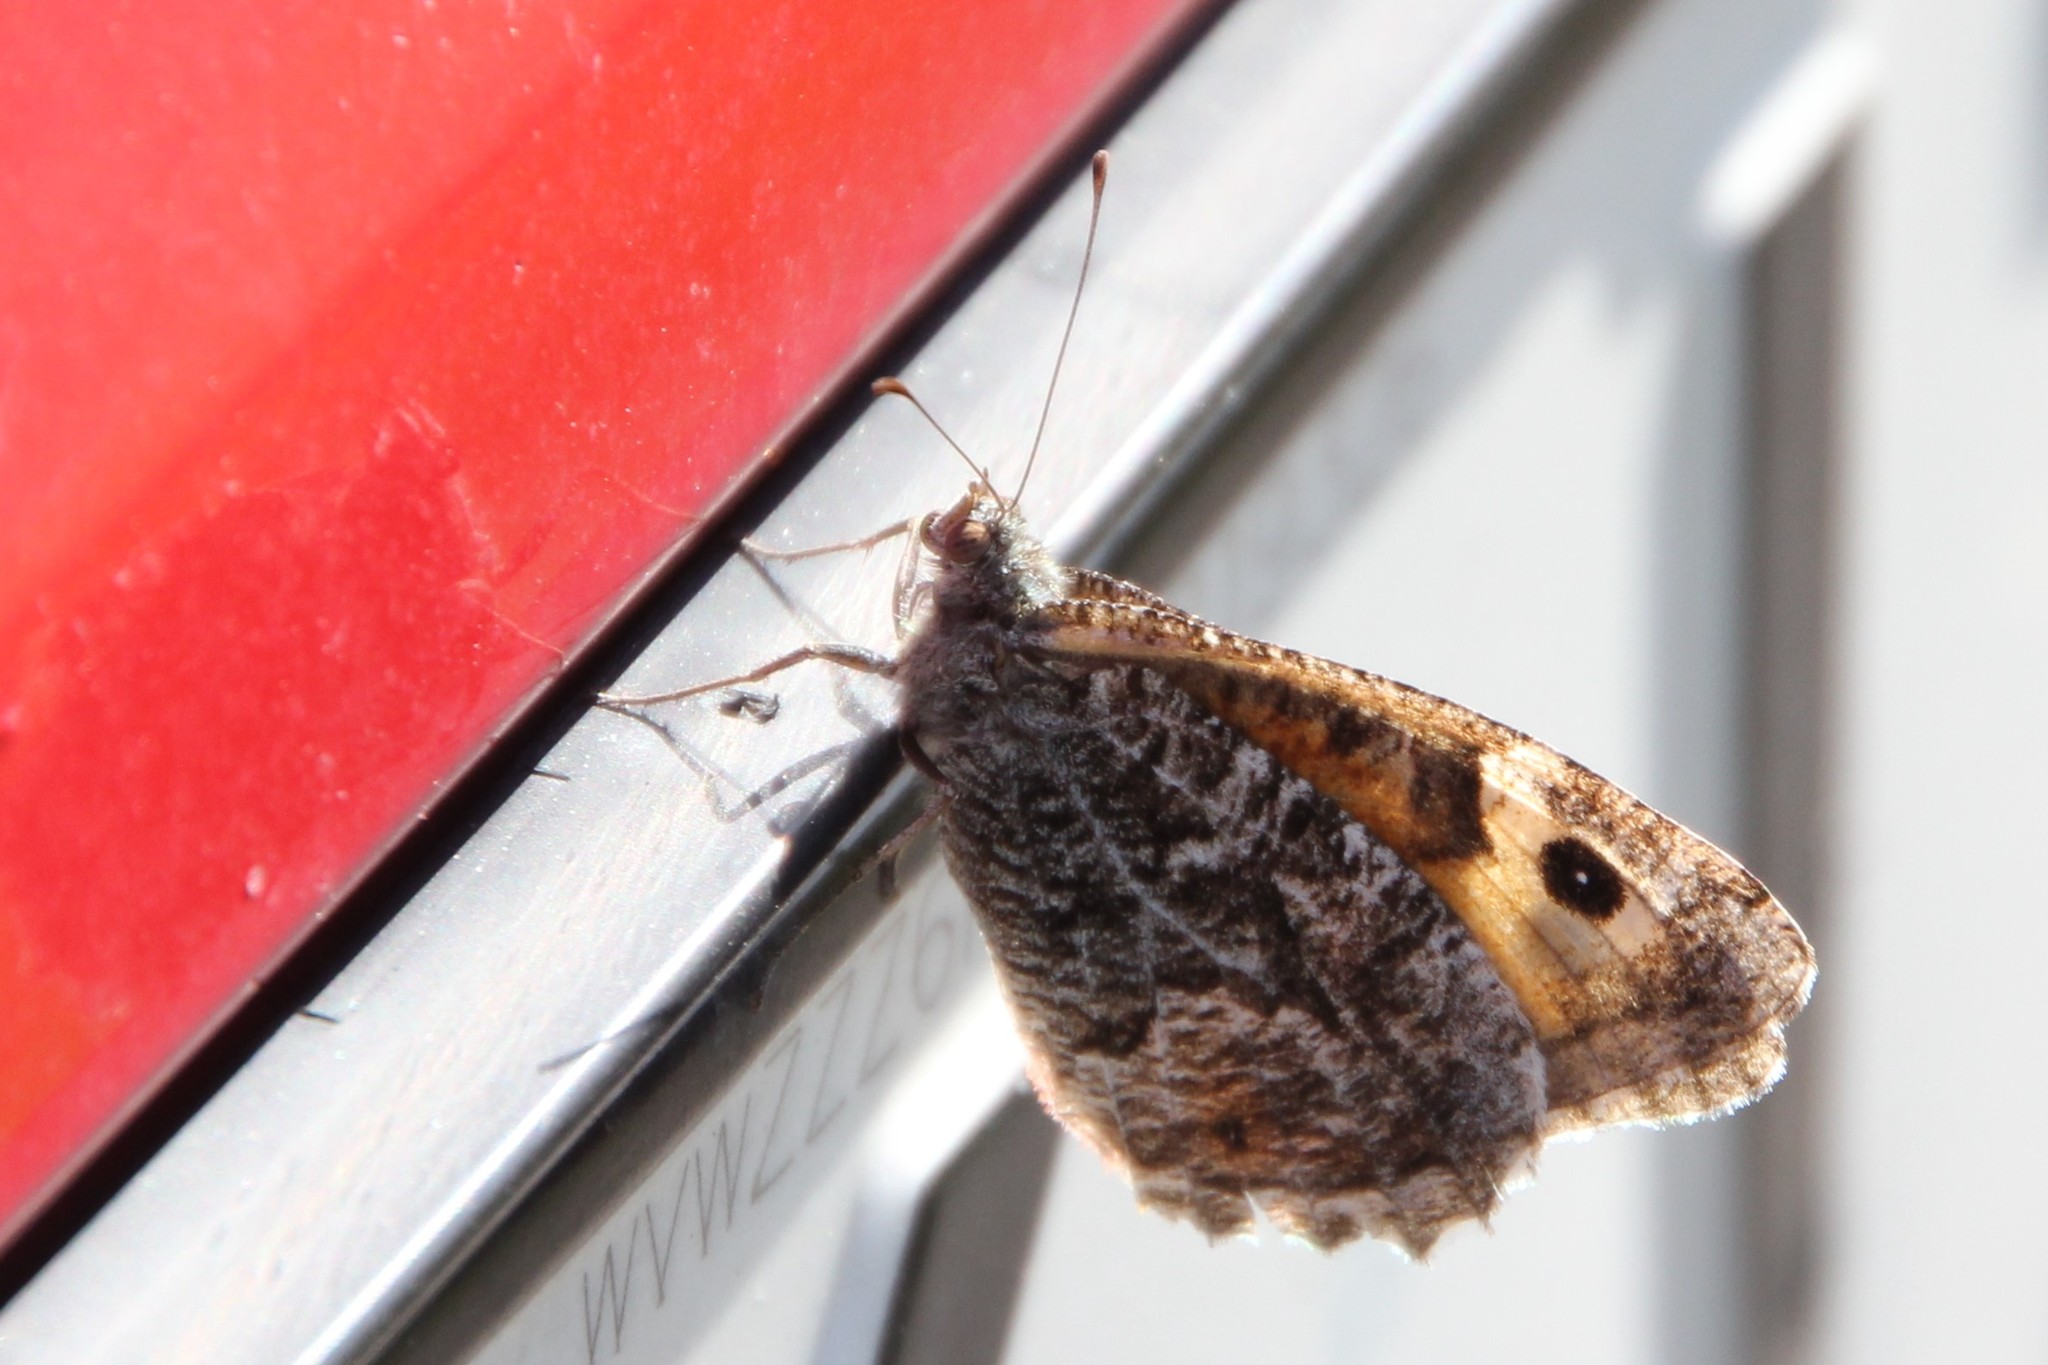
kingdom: Animalia
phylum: Arthropoda
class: Insecta
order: Lepidoptera
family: Nymphalidae
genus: Hipparchia
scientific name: Hipparchia semele
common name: Grayling
